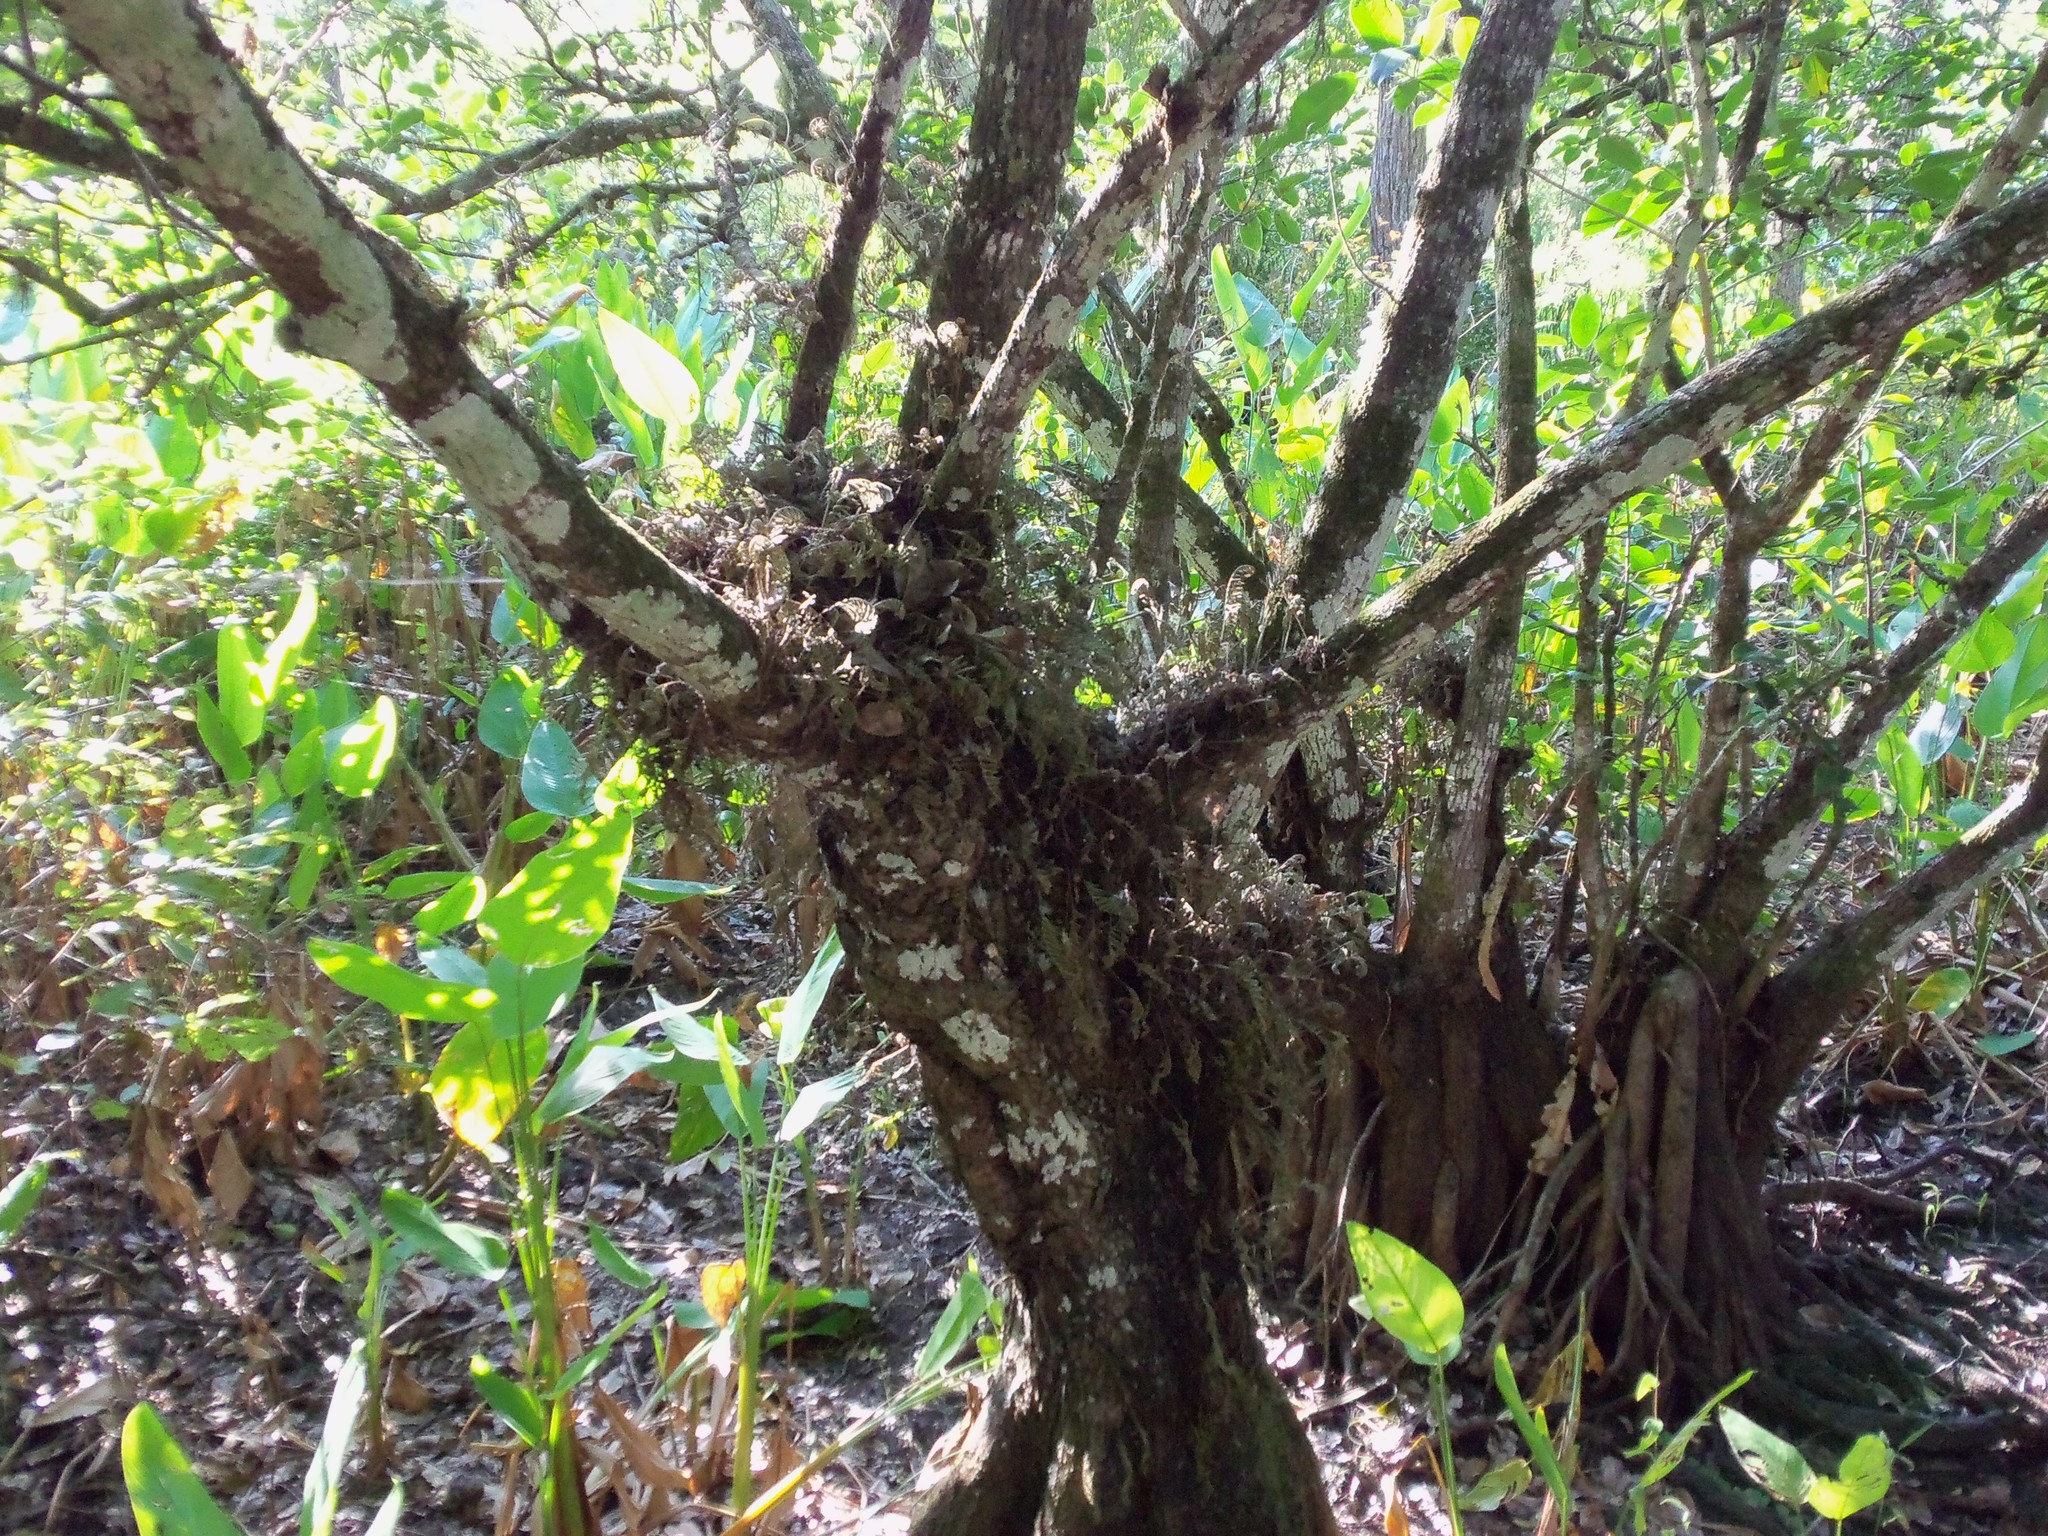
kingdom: Plantae
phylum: Tracheophyta
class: Polypodiopsida
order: Polypodiales
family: Polypodiaceae
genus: Pleopeltis
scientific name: Pleopeltis michauxiana
